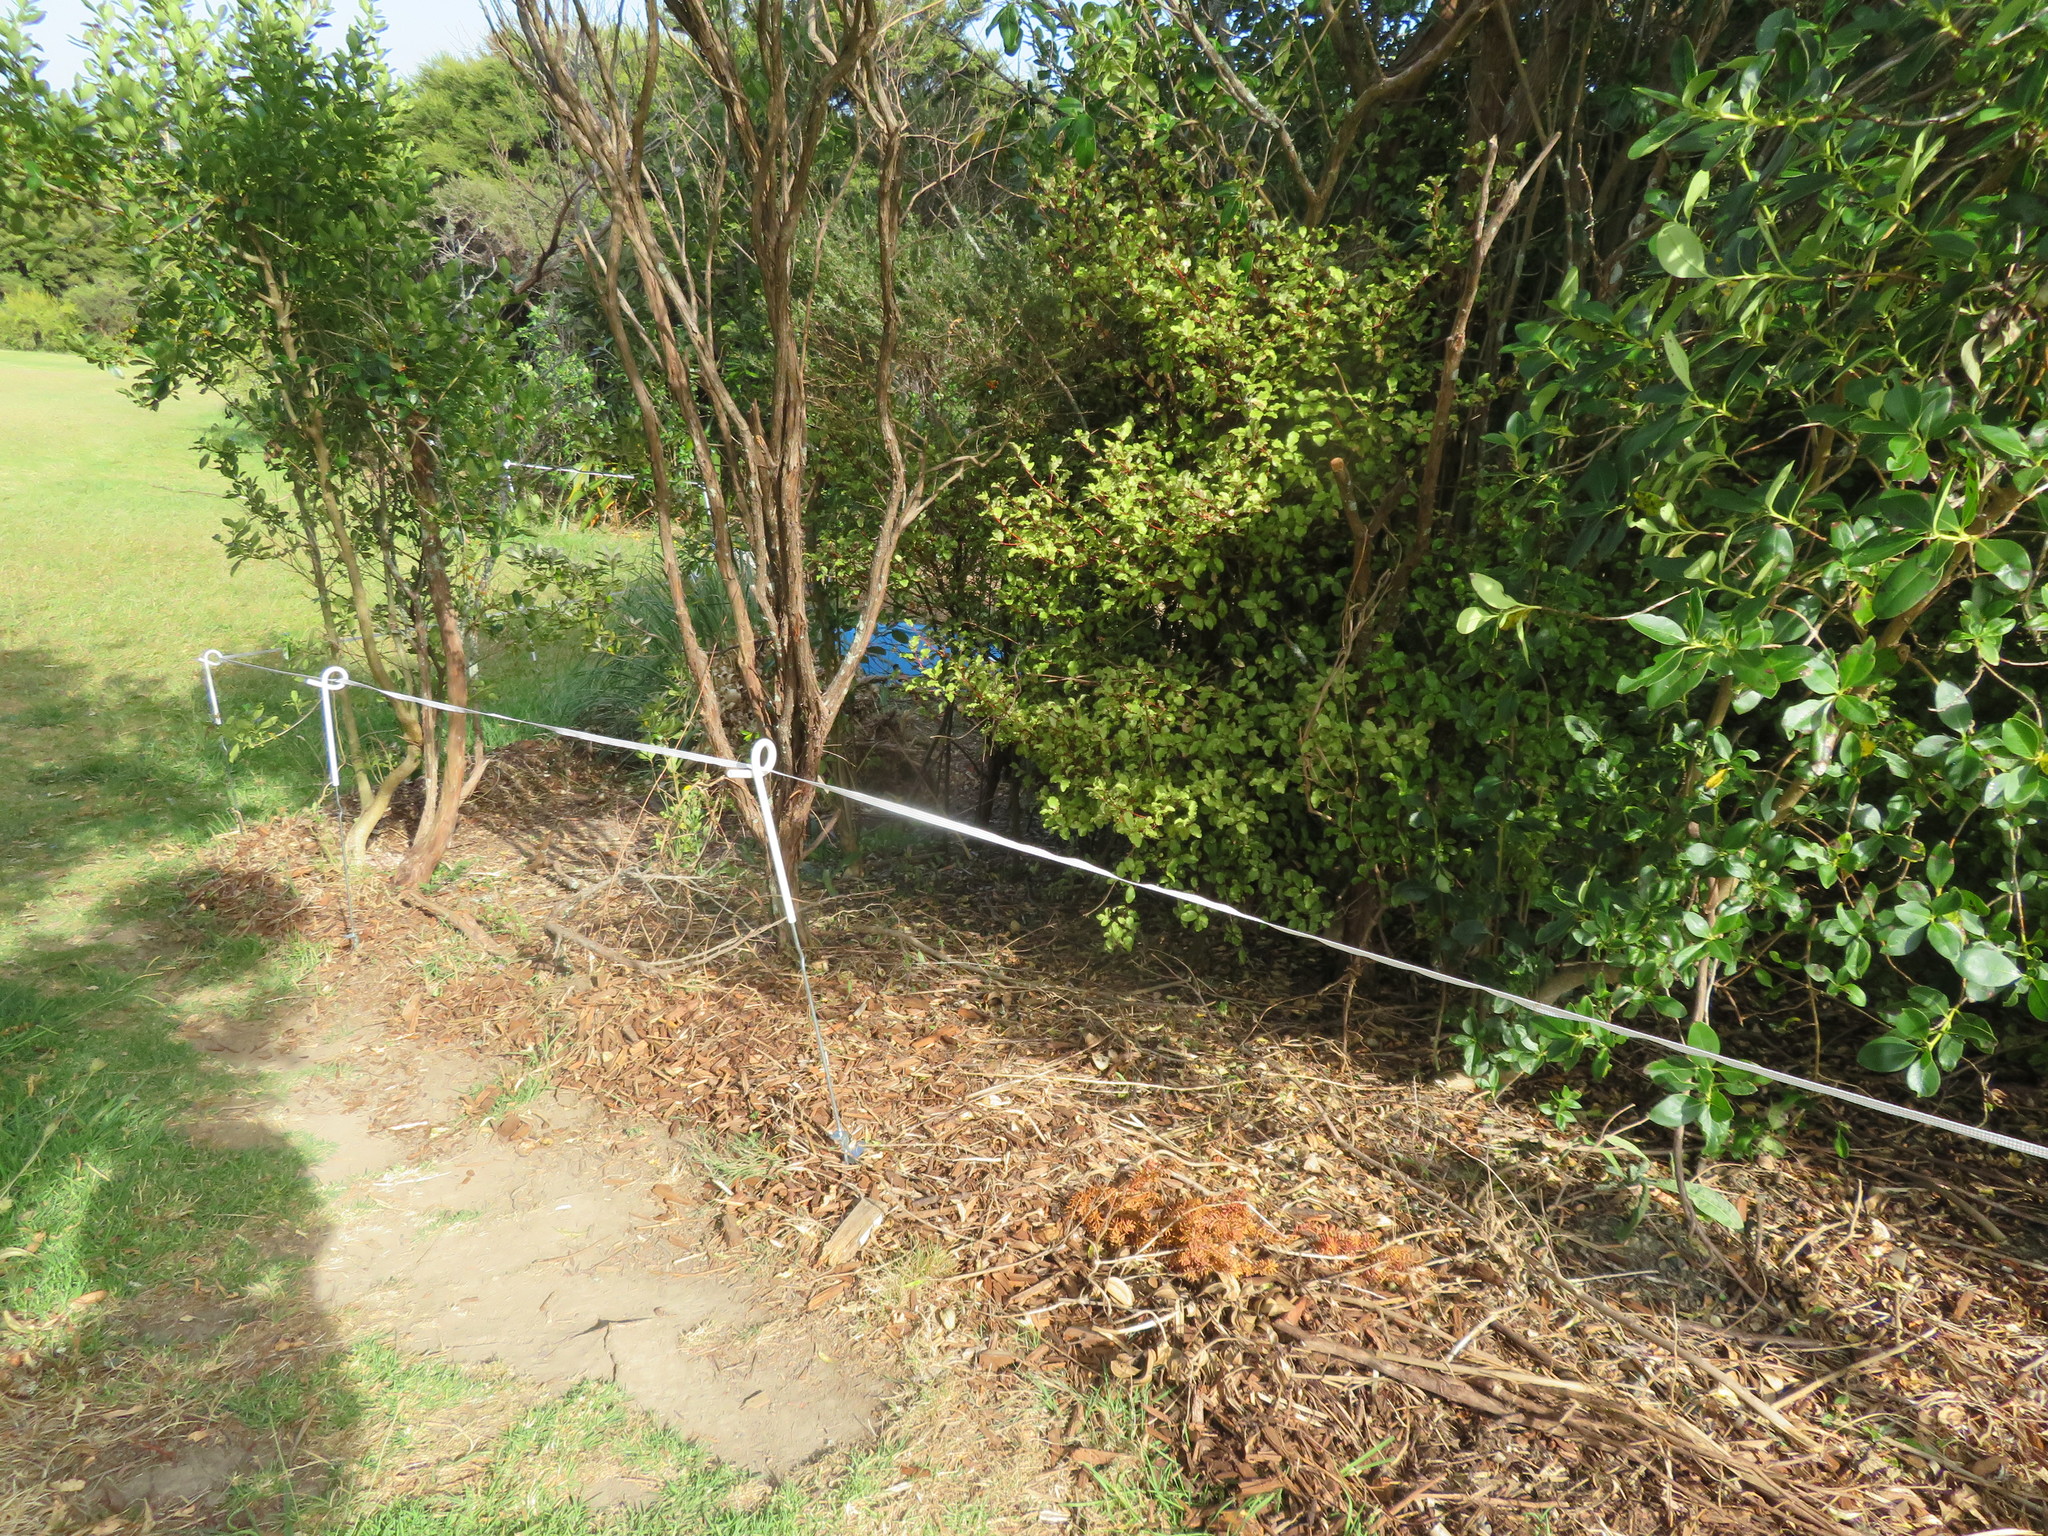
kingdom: Plantae
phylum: Tracheophyta
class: Magnoliopsida
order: Ericales
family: Primulaceae
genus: Myrsine
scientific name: Myrsine australis
